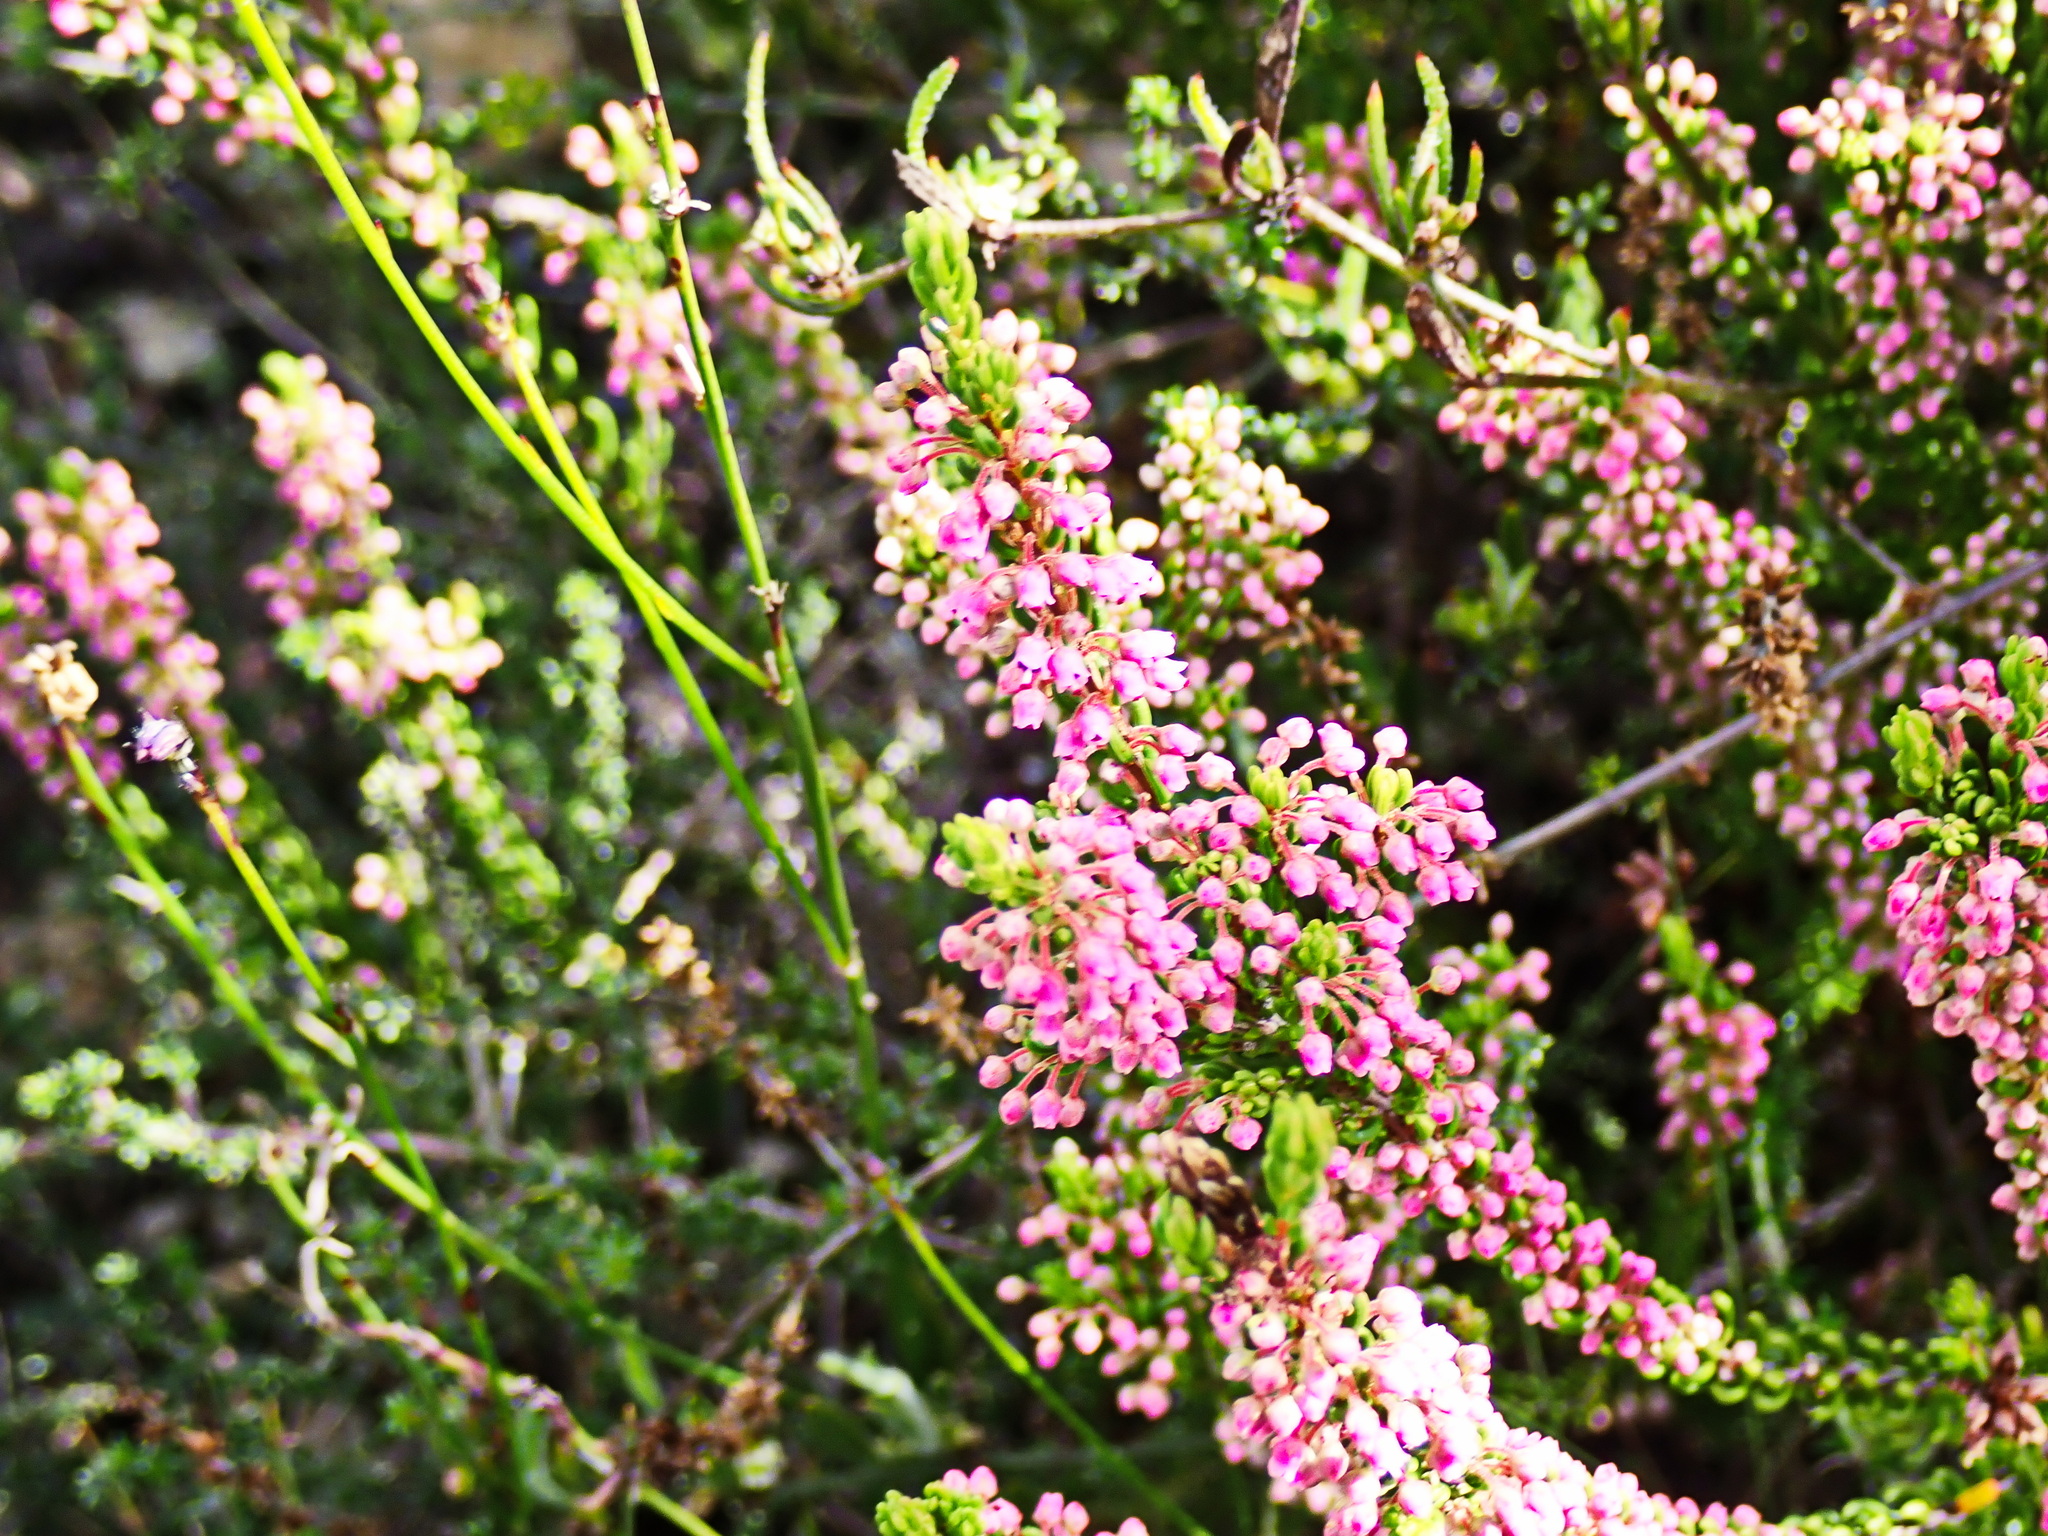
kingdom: Plantae
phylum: Tracheophyta
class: Magnoliopsida
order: Ericales
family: Ericaceae
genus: Erica
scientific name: Erica curtophylla
